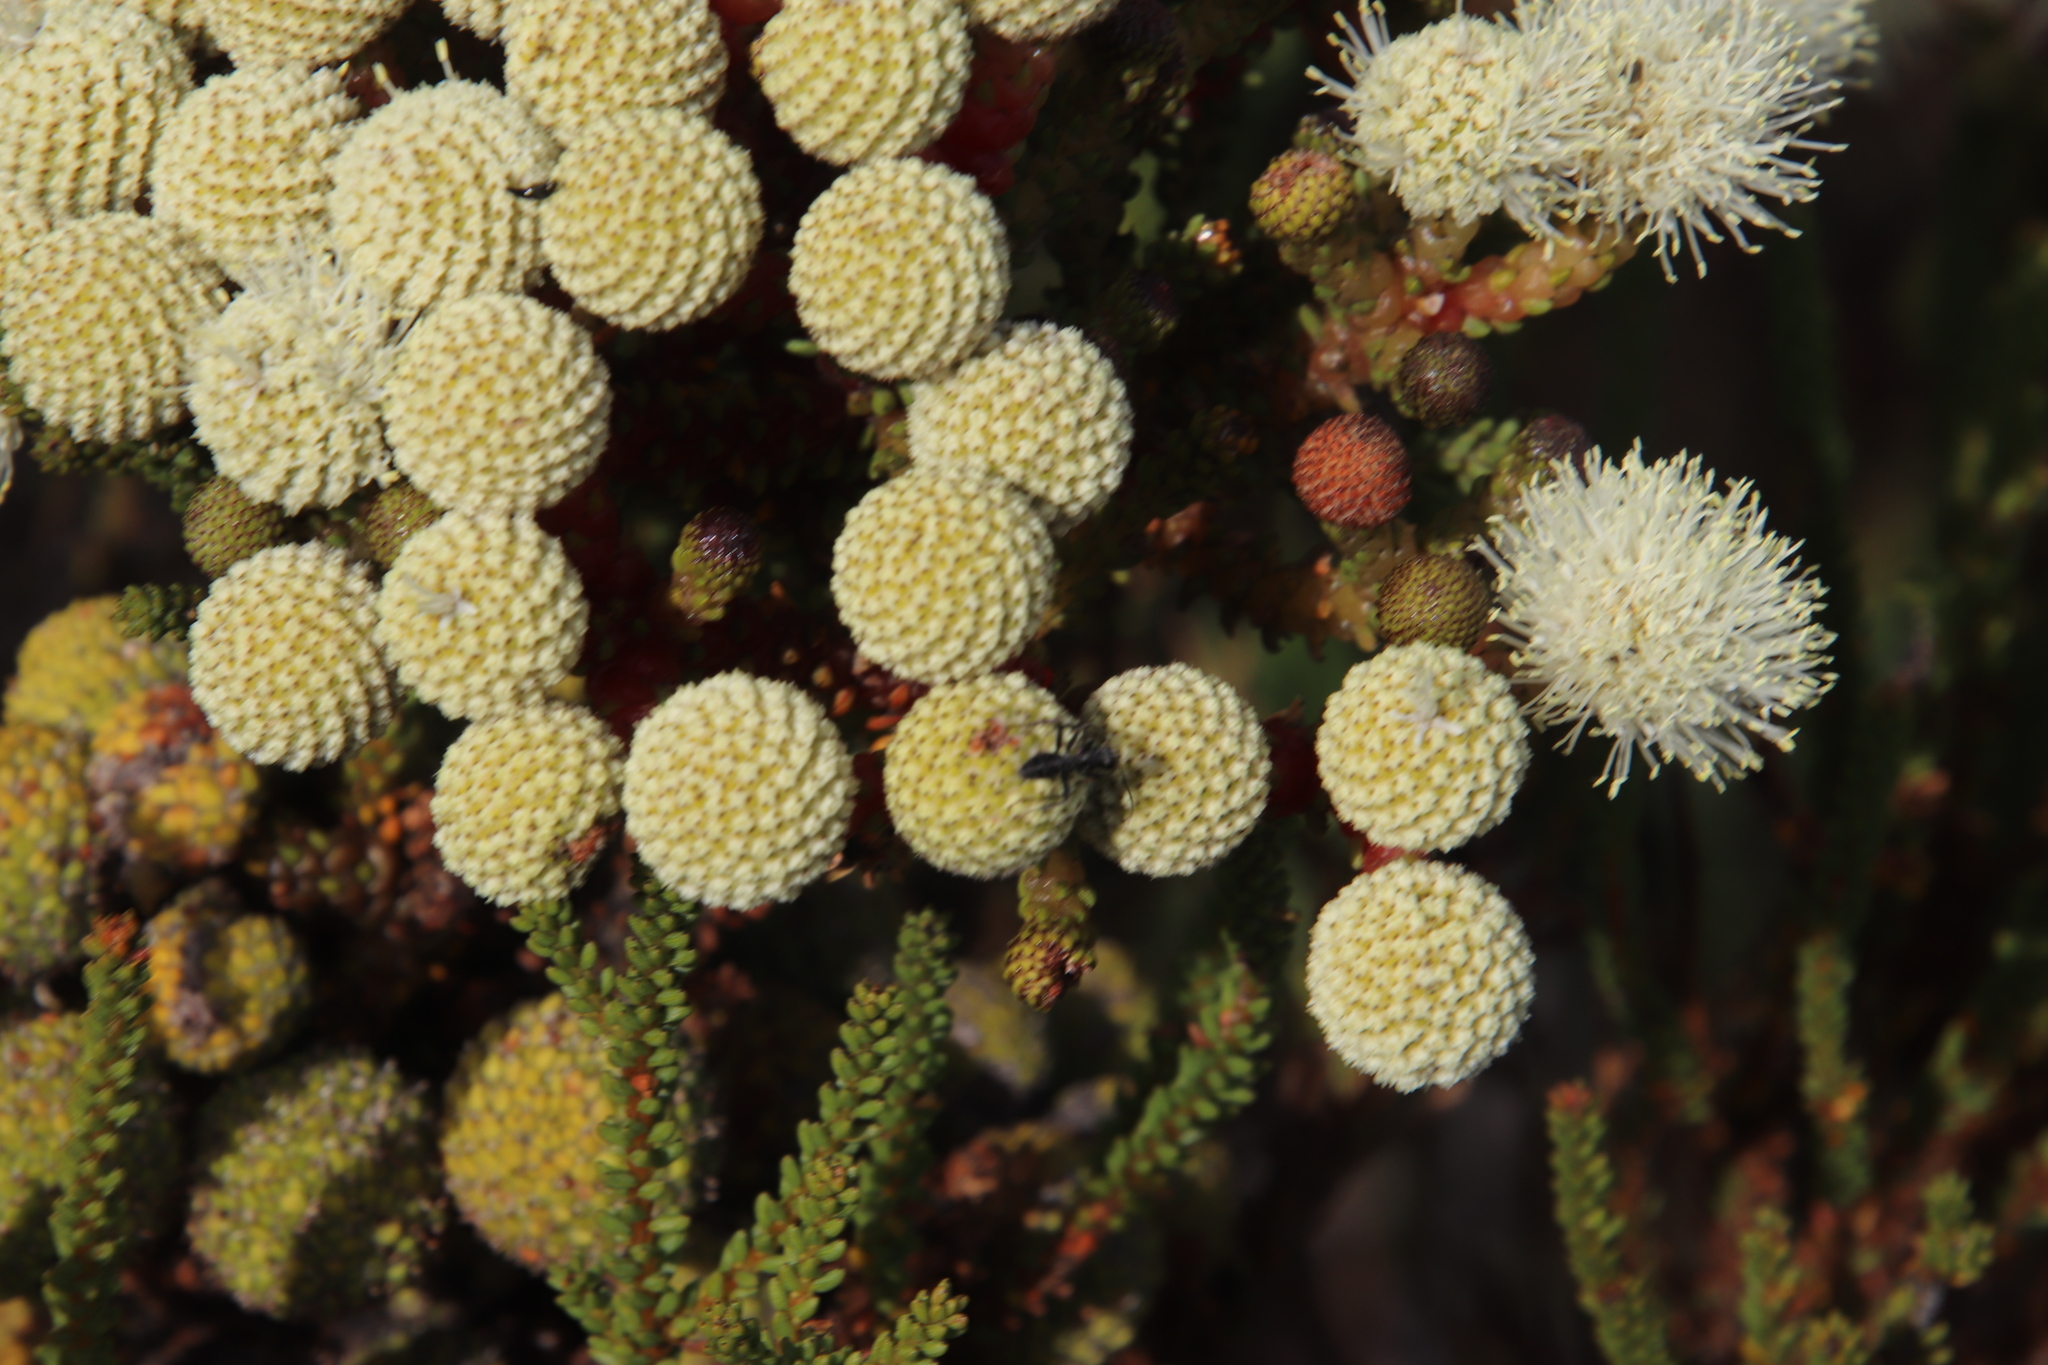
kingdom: Animalia
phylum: Arthropoda
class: Insecta
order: Hymenoptera
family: Formicidae
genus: Camponotus
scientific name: Camponotus niveosetosus
